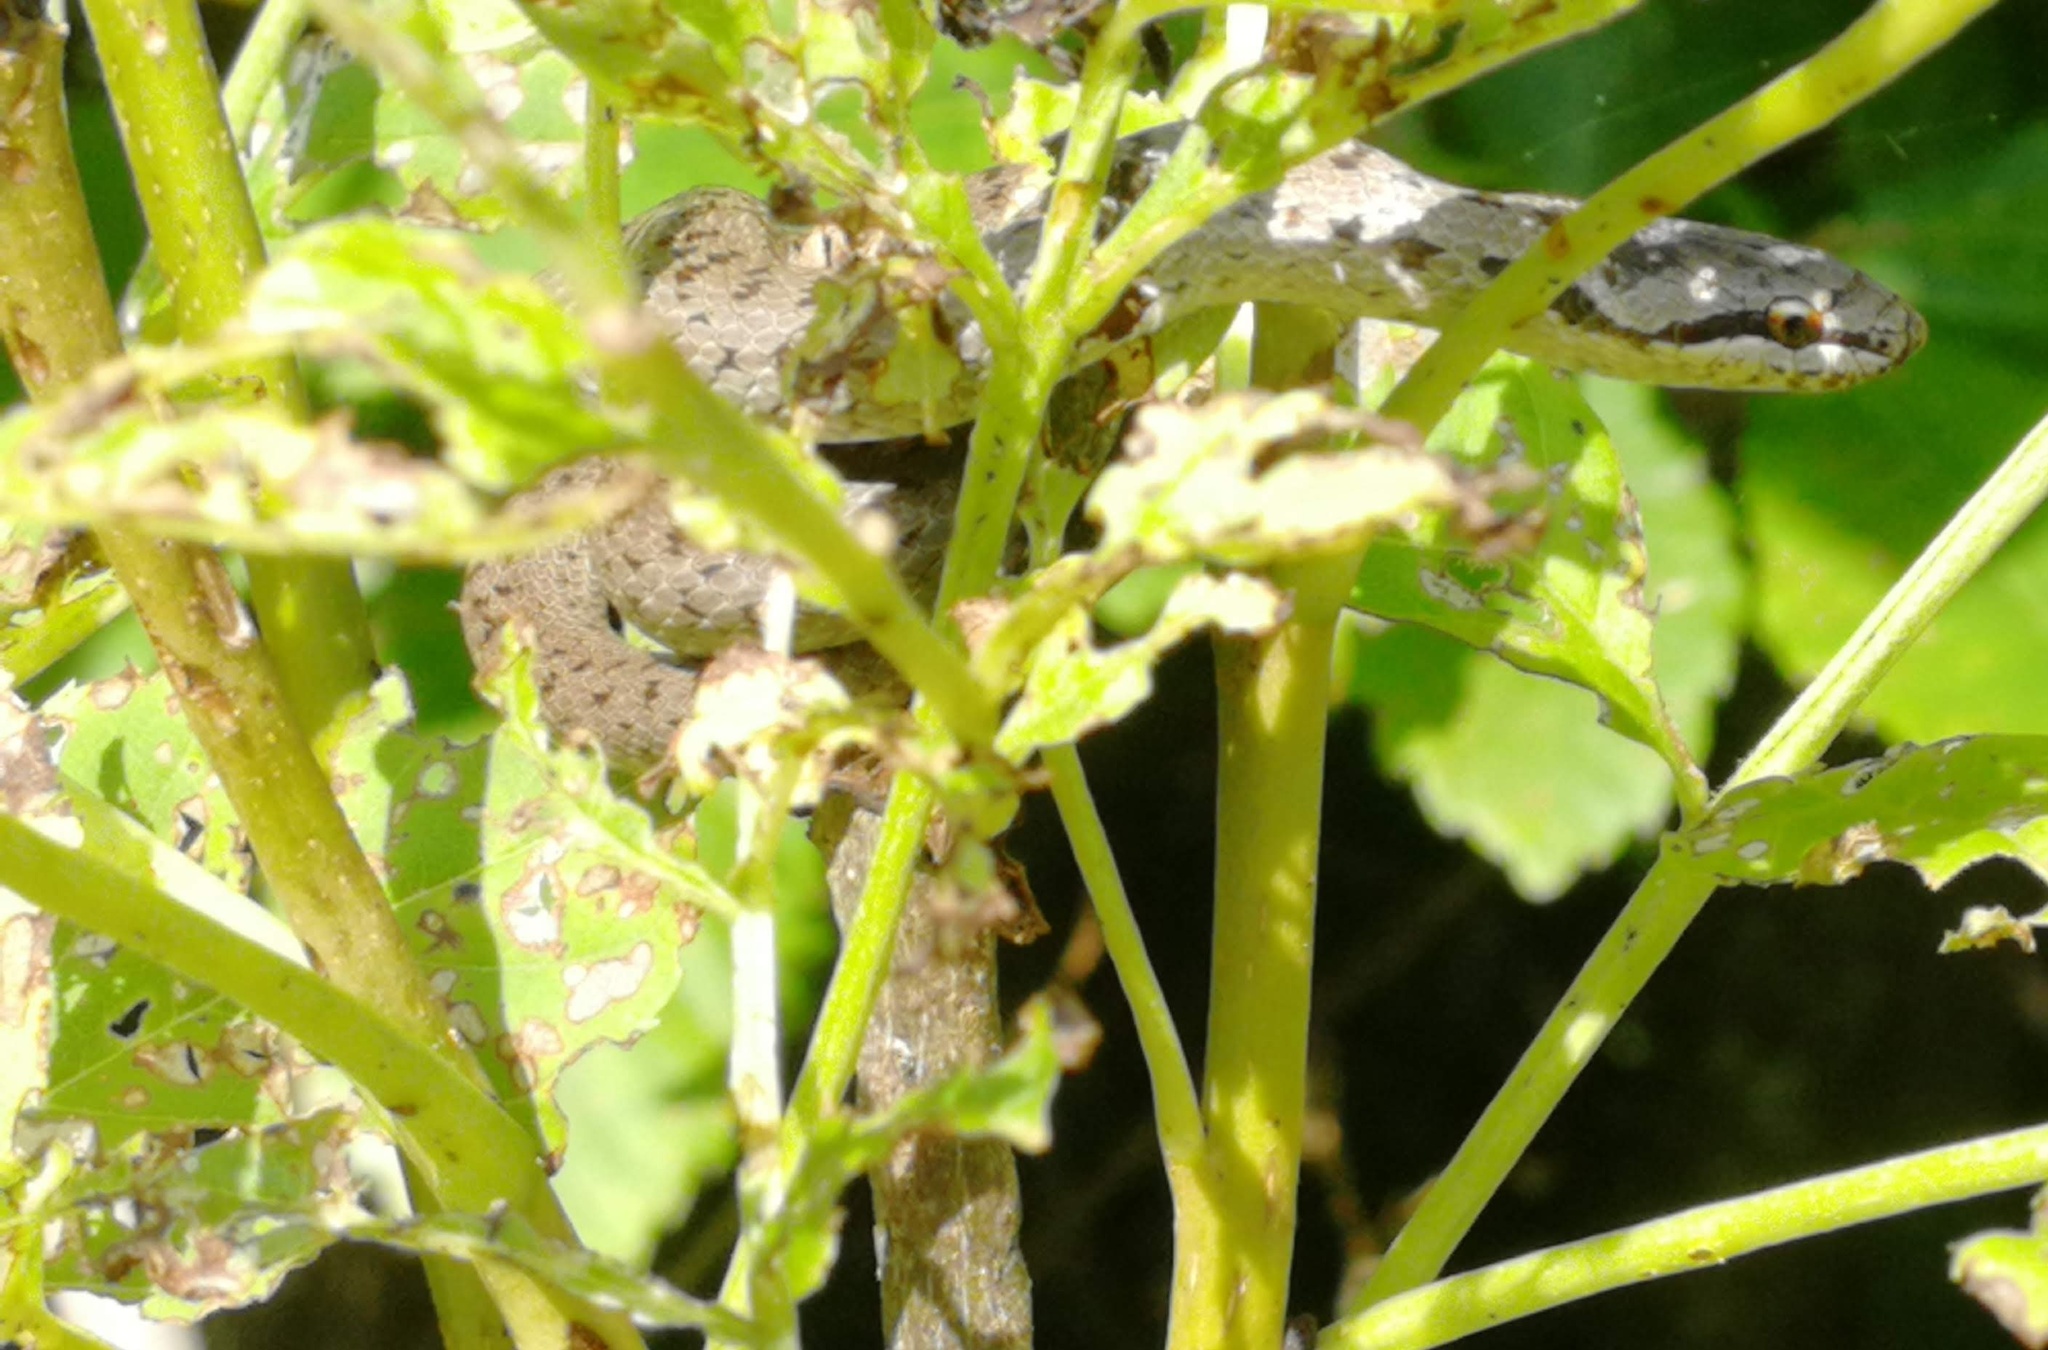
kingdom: Animalia
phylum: Chordata
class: Squamata
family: Colubridae
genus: Coronella
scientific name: Coronella austriaca
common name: Smooth snake
